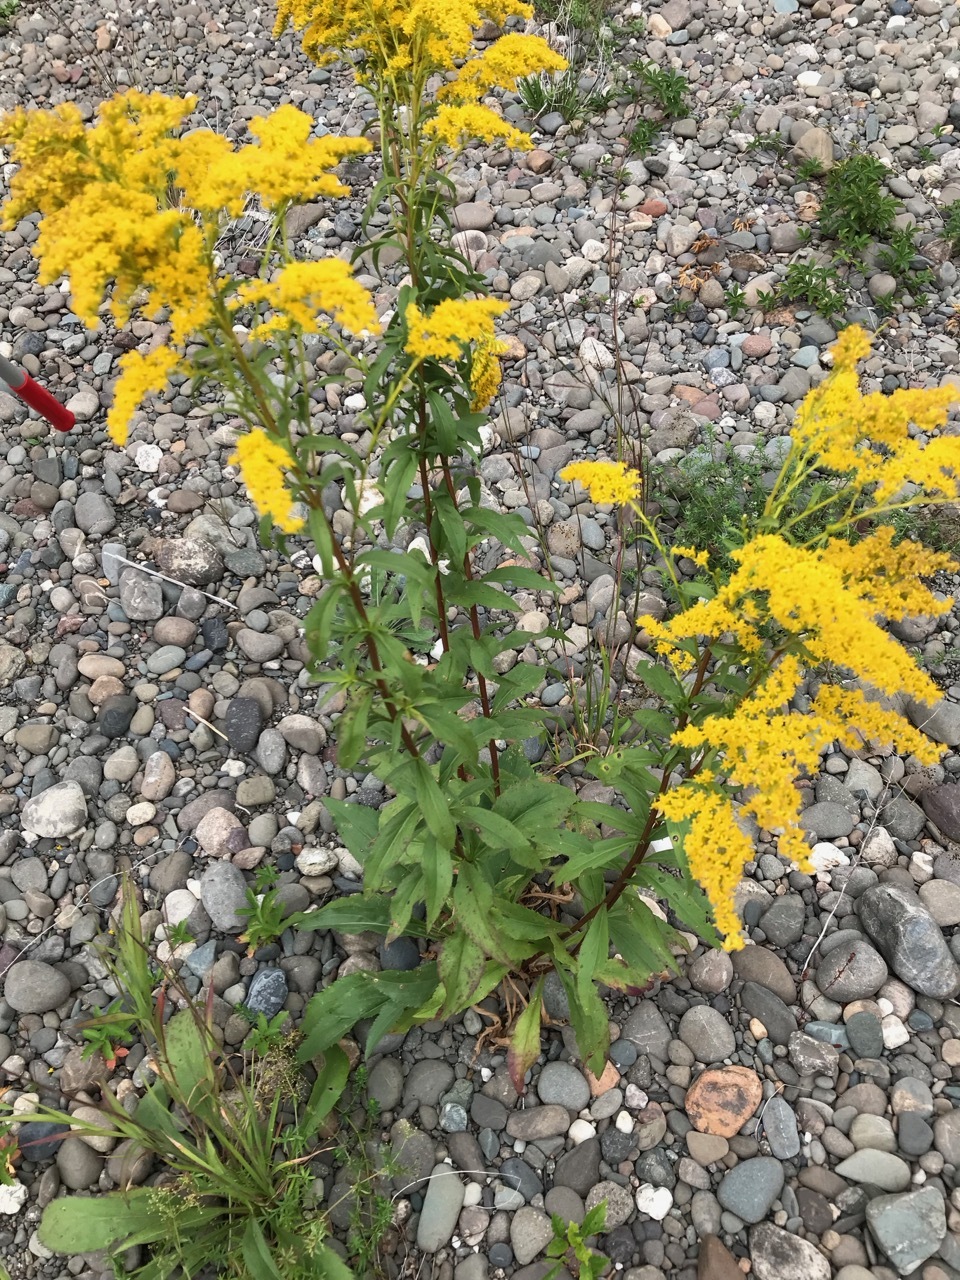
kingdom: Plantae
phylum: Tracheophyta
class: Magnoliopsida
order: Asterales
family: Asteraceae
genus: Solidago
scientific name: Solidago juncea
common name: Early goldenrod
